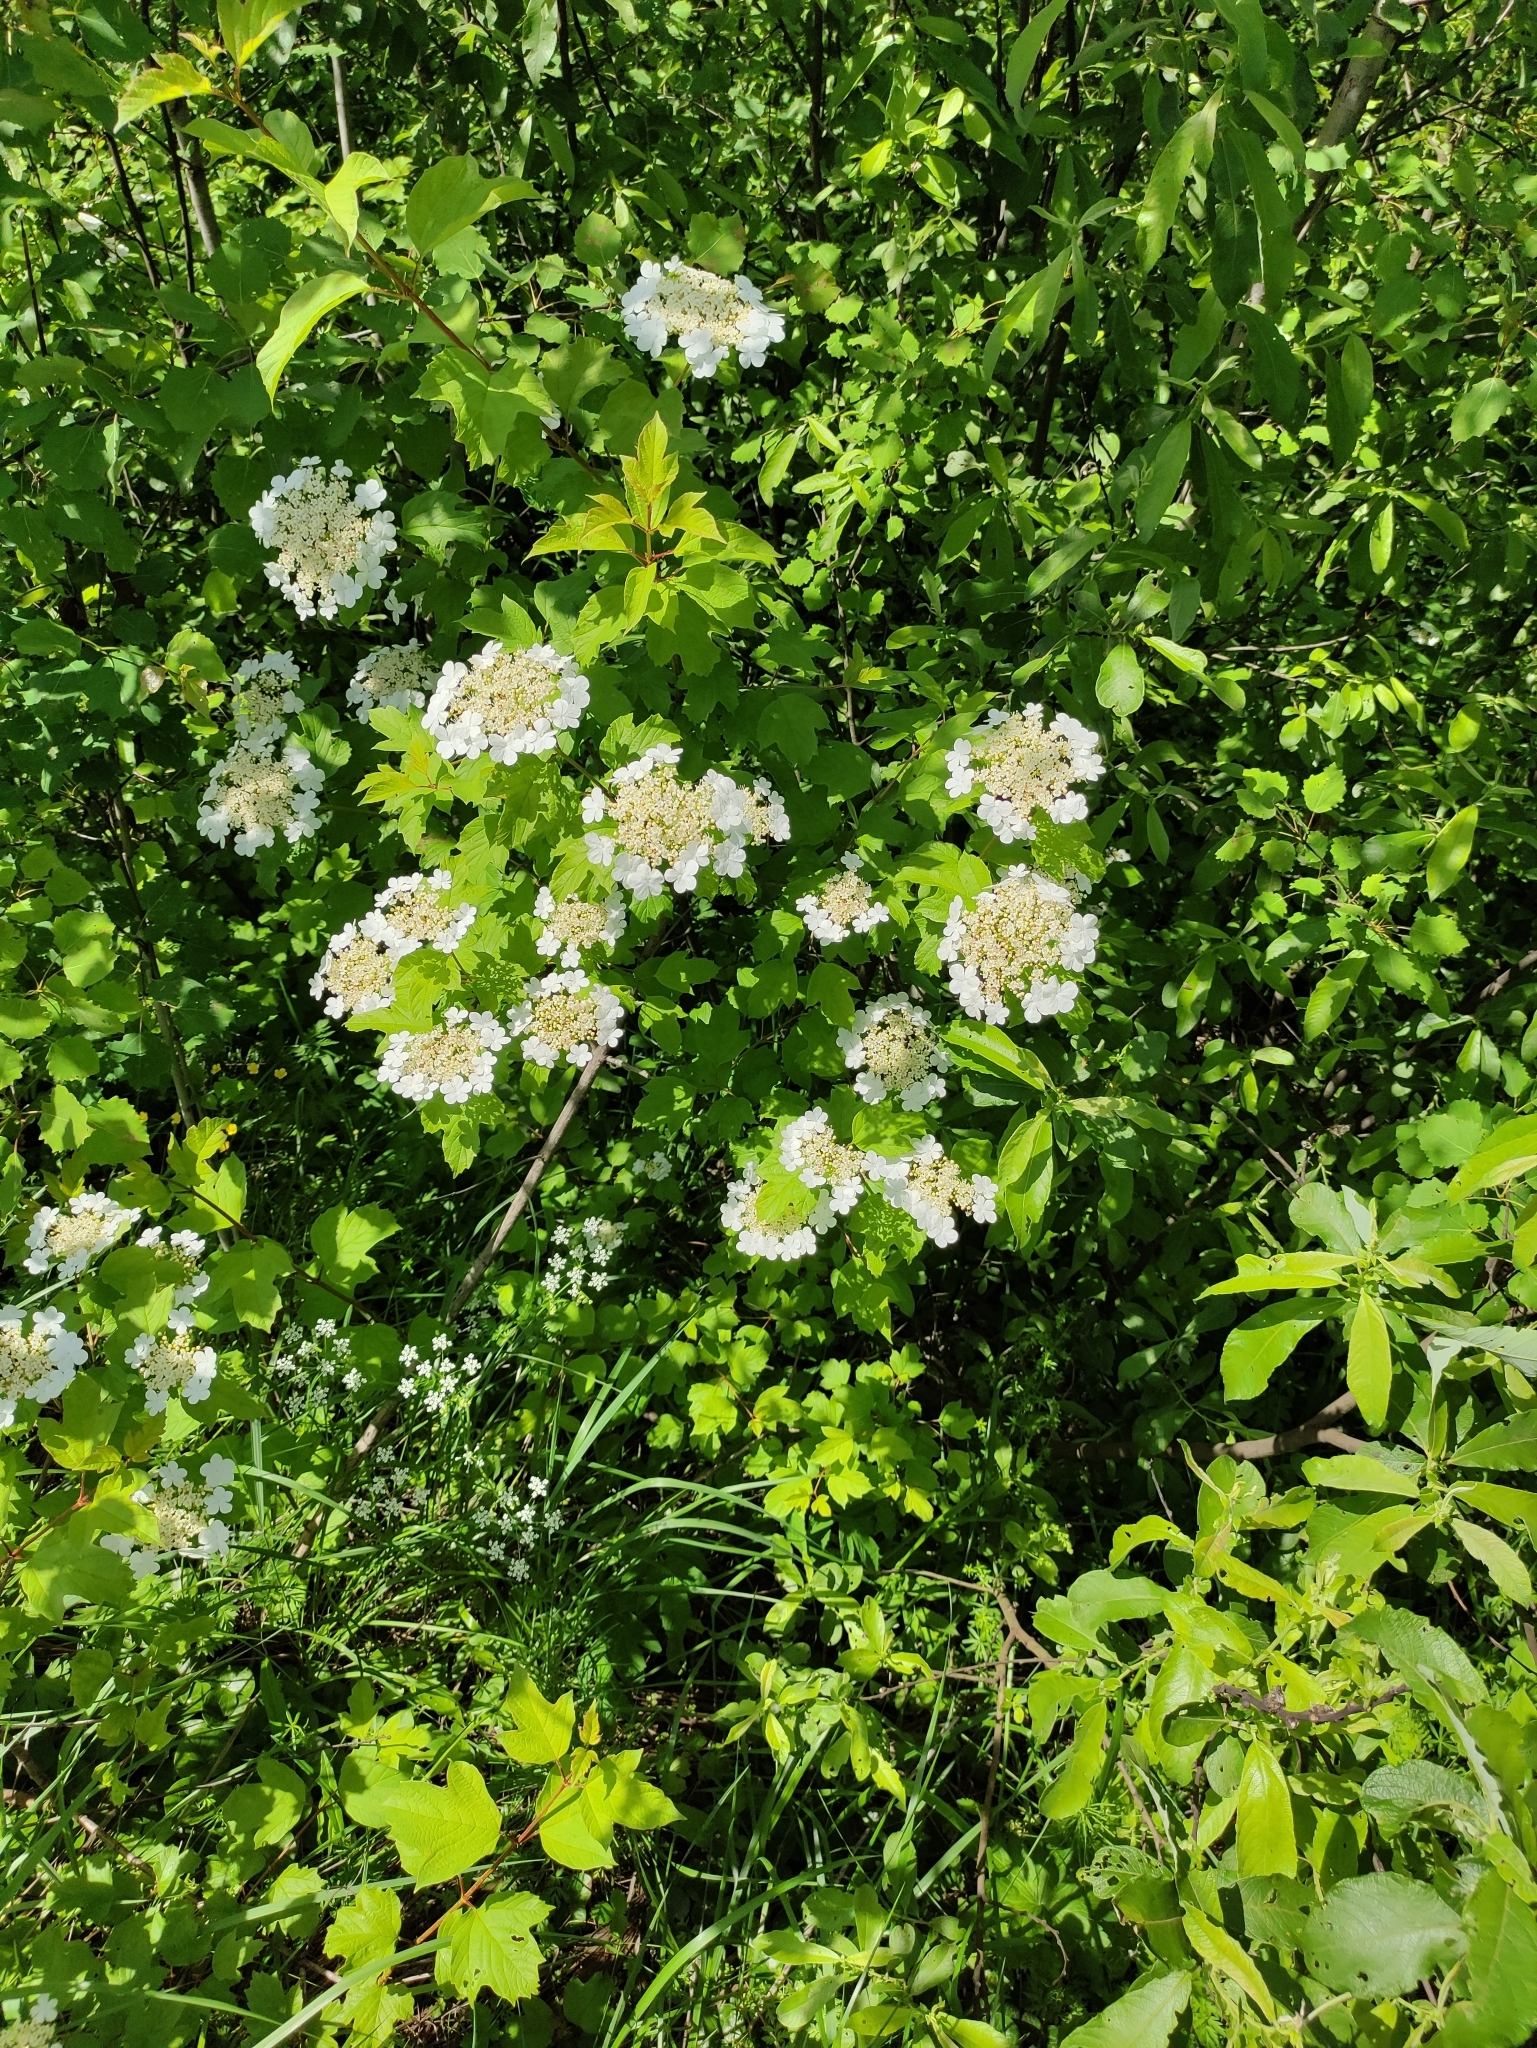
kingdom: Plantae
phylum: Tracheophyta
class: Magnoliopsida
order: Dipsacales
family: Viburnaceae
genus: Viburnum
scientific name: Viburnum opulus
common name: Guelder-rose
